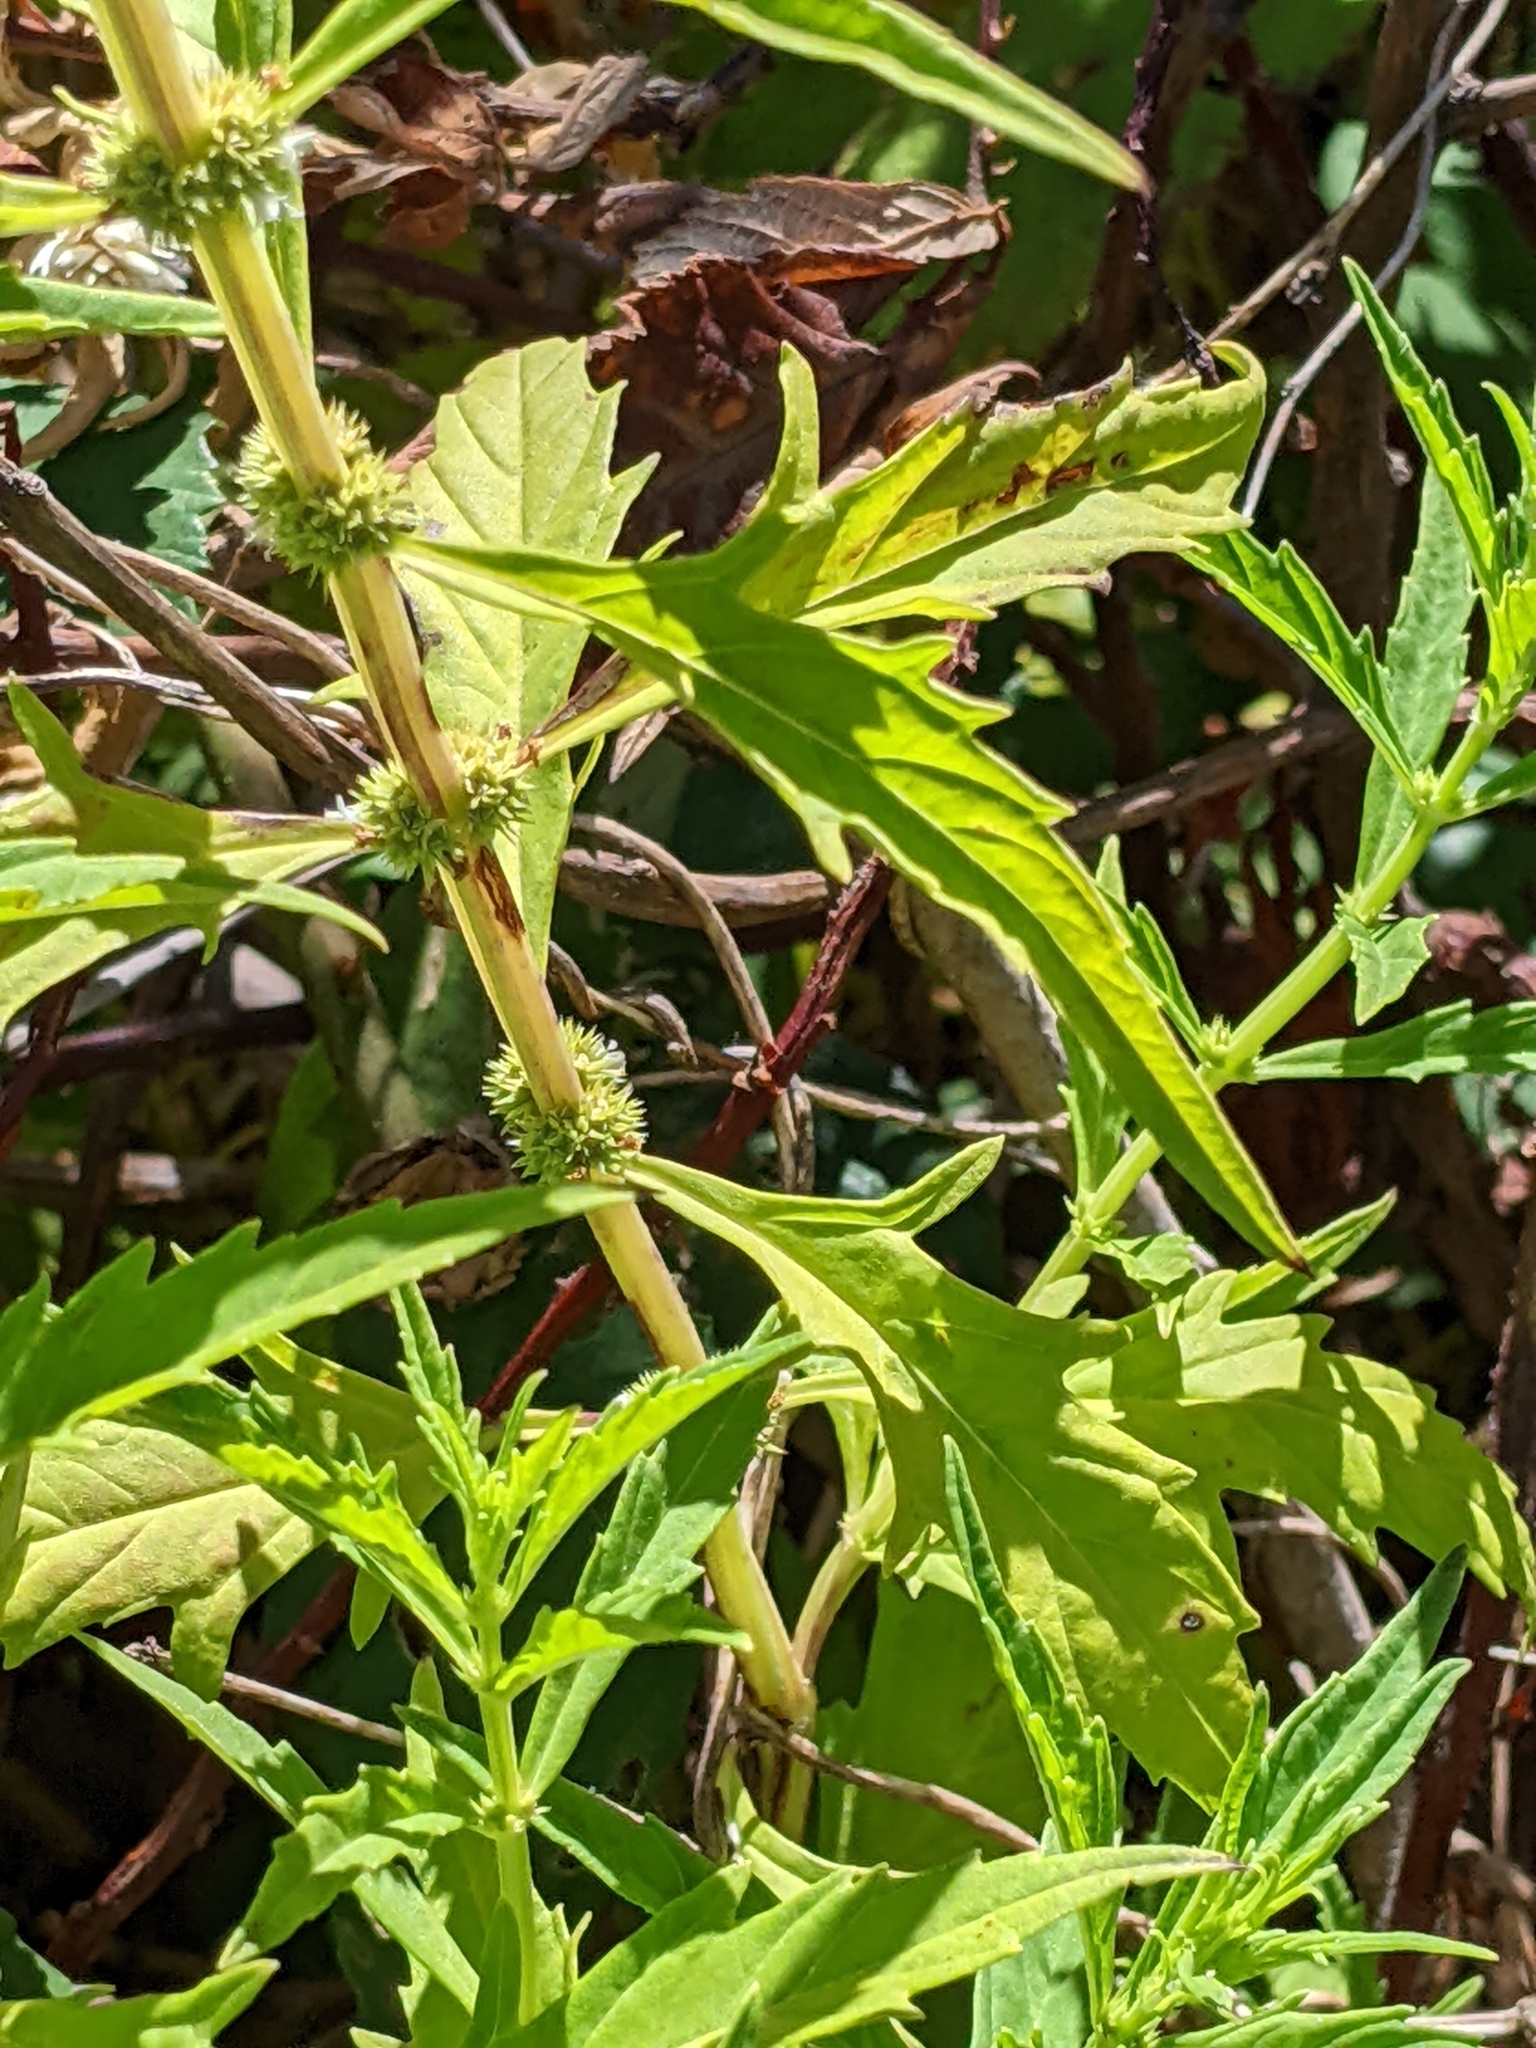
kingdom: Plantae
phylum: Tracheophyta
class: Magnoliopsida
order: Lamiales
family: Lamiaceae
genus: Lycopus
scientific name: Lycopus americanus
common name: American bugleweed
